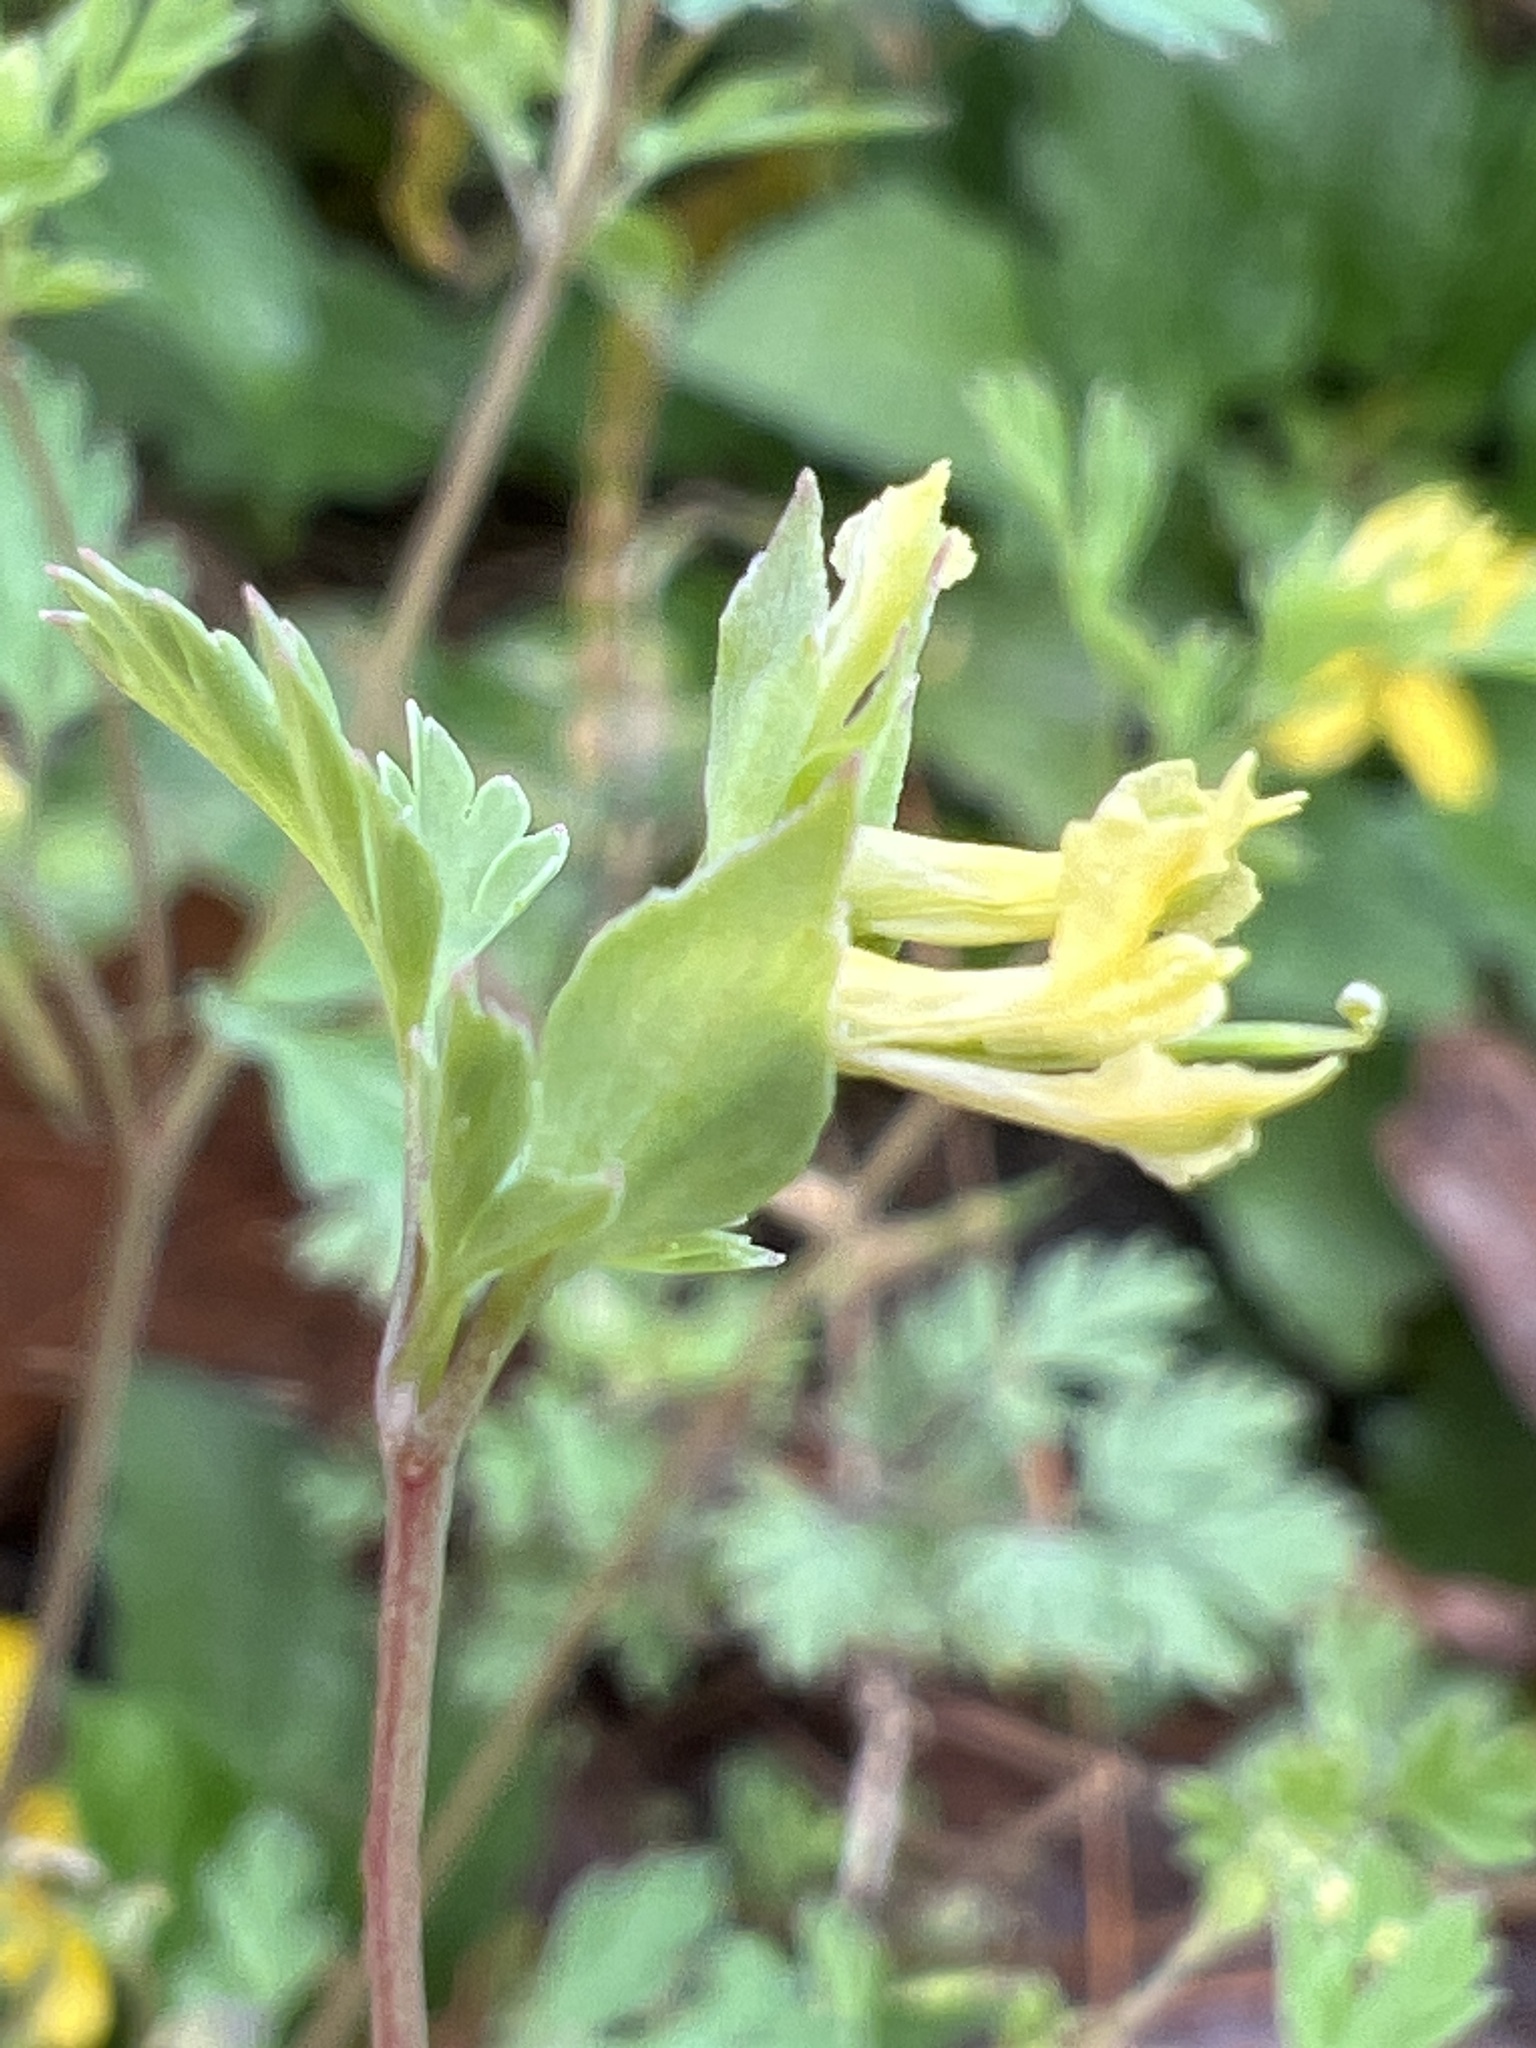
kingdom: Plantae
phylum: Tracheophyta
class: Magnoliopsida
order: Ranunculales
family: Papaveraceae
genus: Corydalis
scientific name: Corydalis flavula
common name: Yellow corydalis
